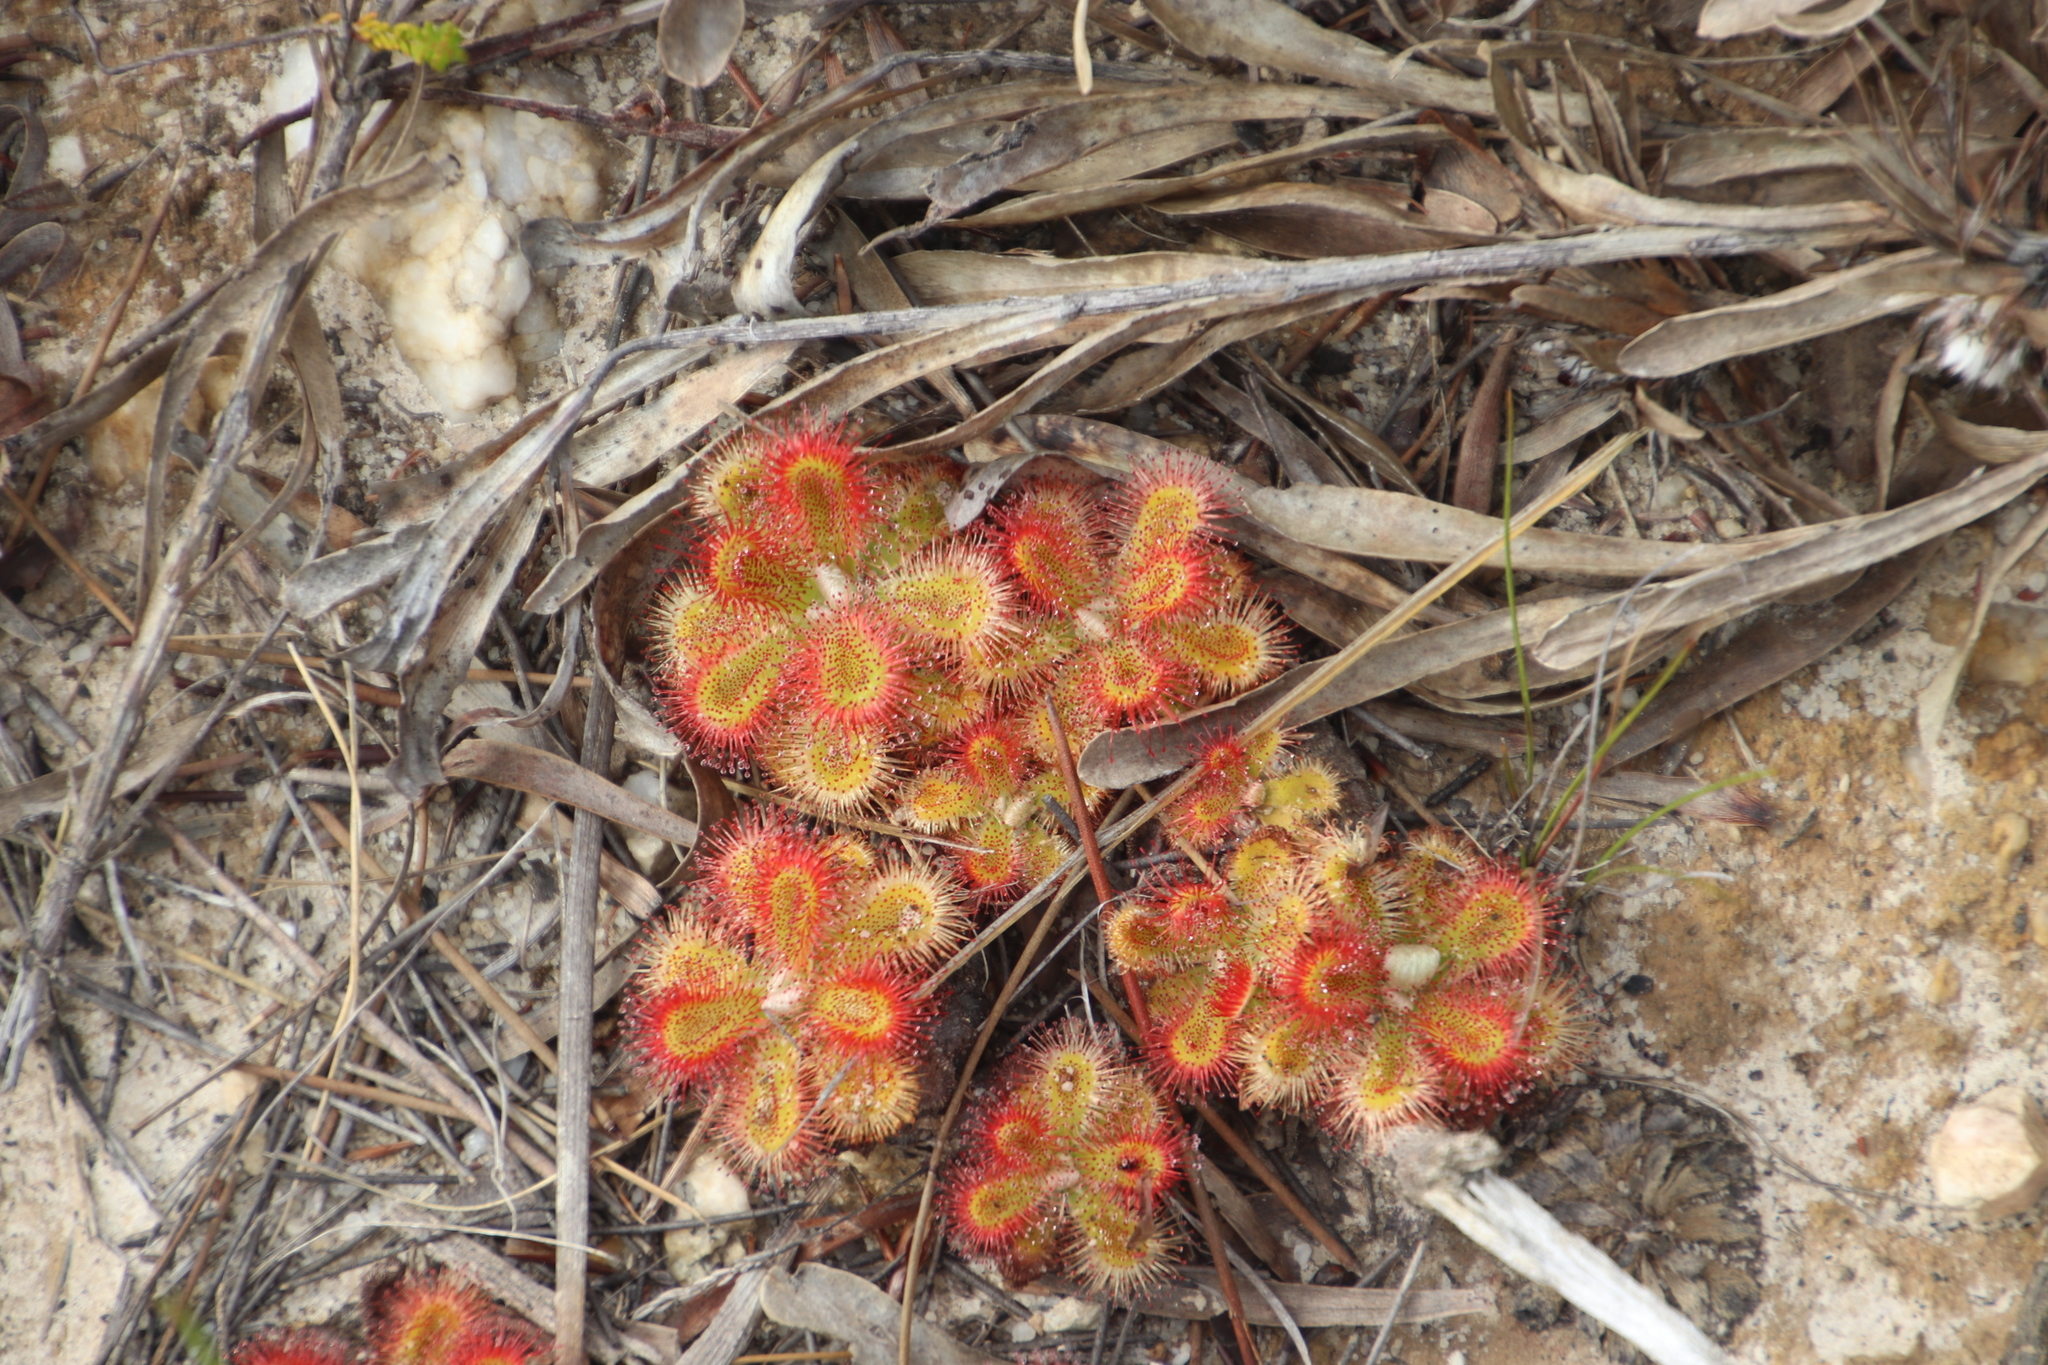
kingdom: Plantae
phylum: Tracheophyta
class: Magnoliopsida
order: Caryophyllales
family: Droseraceae
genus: Drosera
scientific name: Drosera aliciae
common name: Alice sundew
